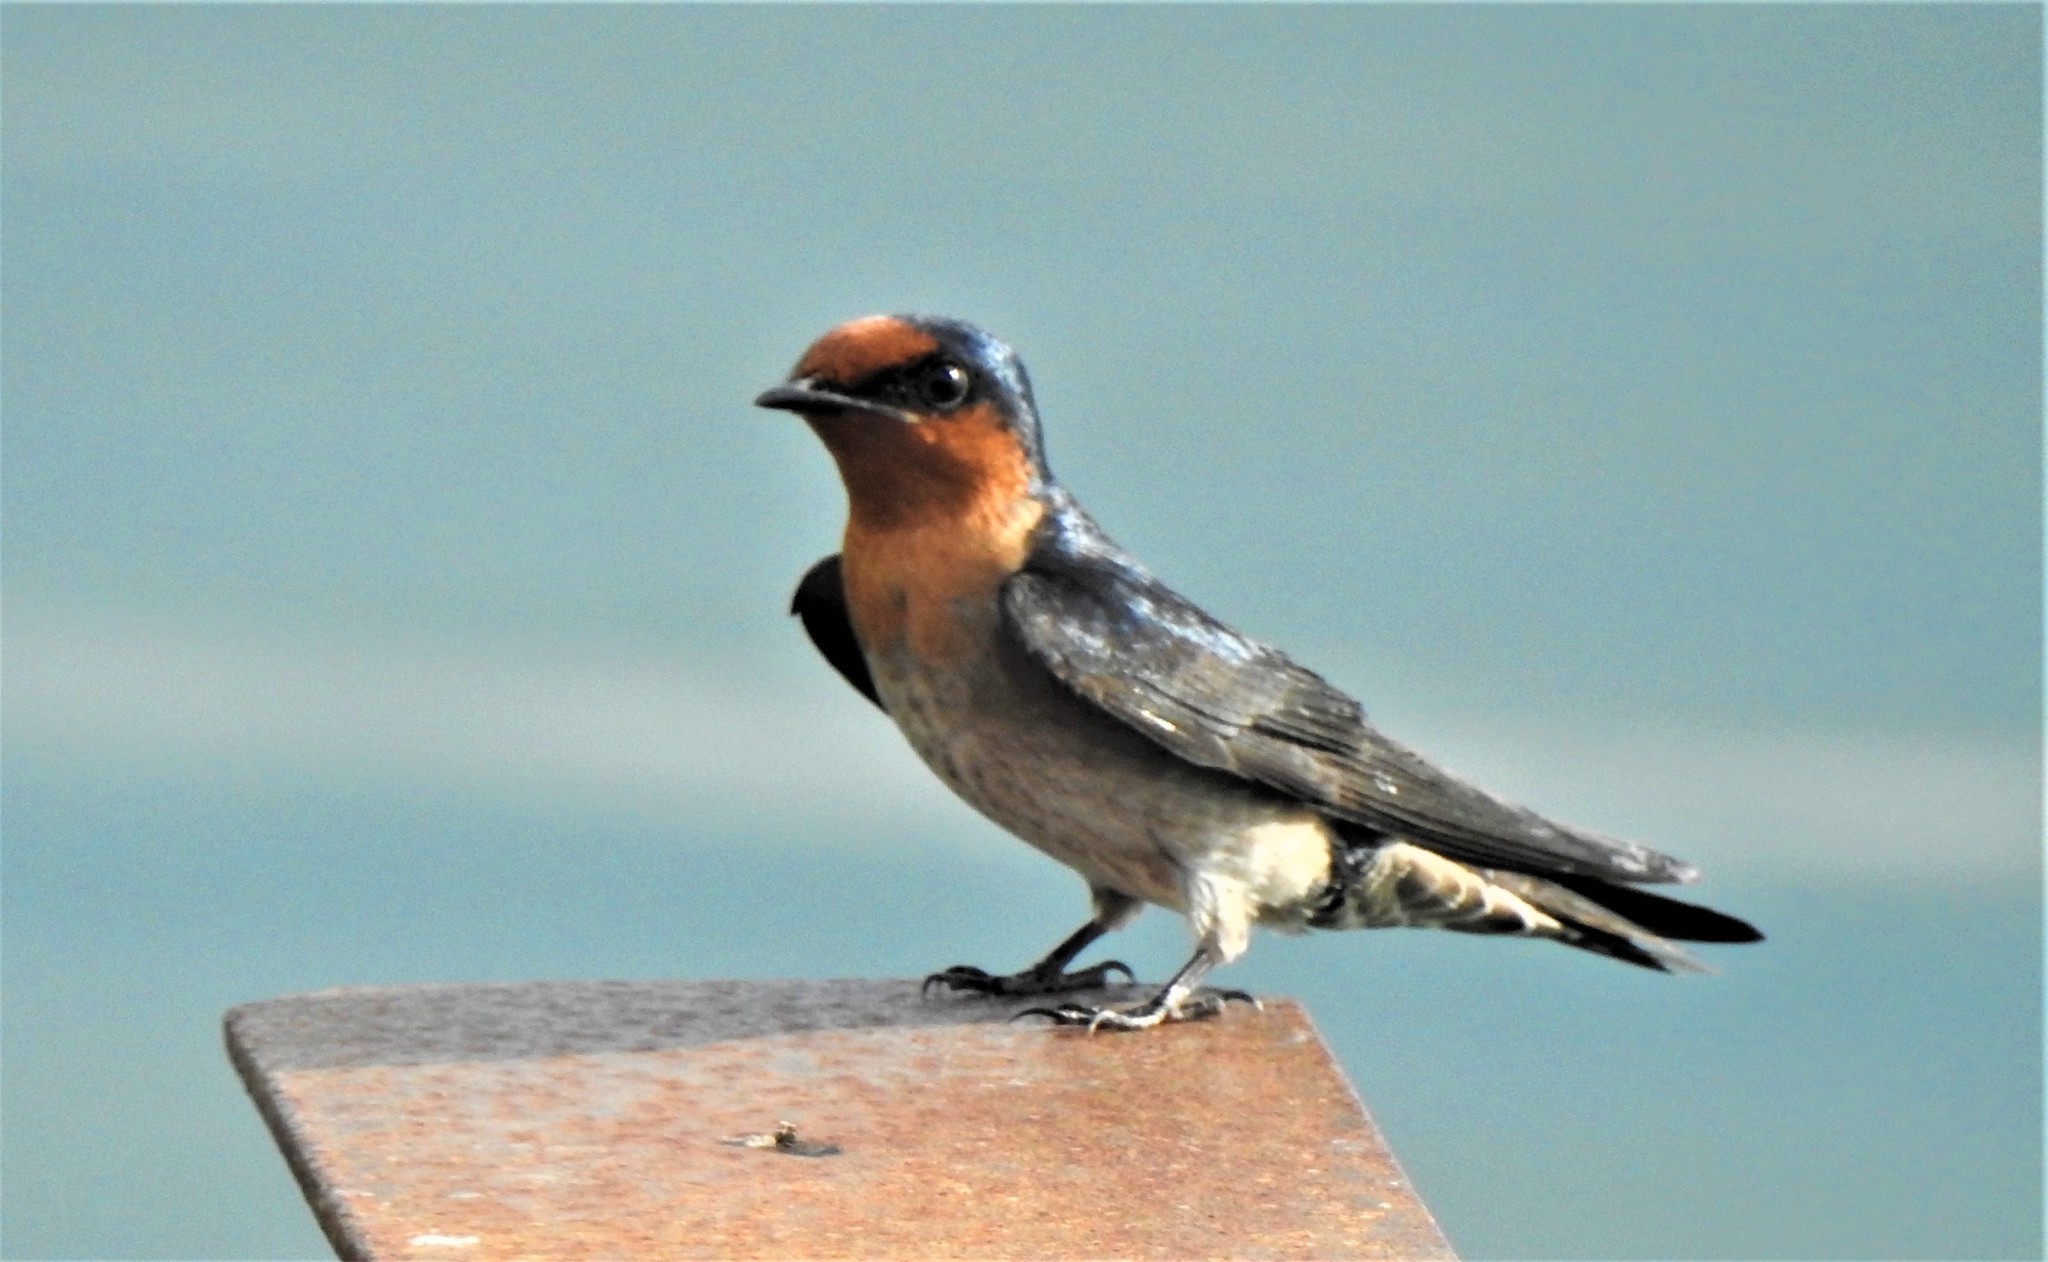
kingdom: Animalia
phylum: Chordata
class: Aves
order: Passeriformes
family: Hirundinidae
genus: Hirundo
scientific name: Hirundo tahitica
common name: Pacific swallow
